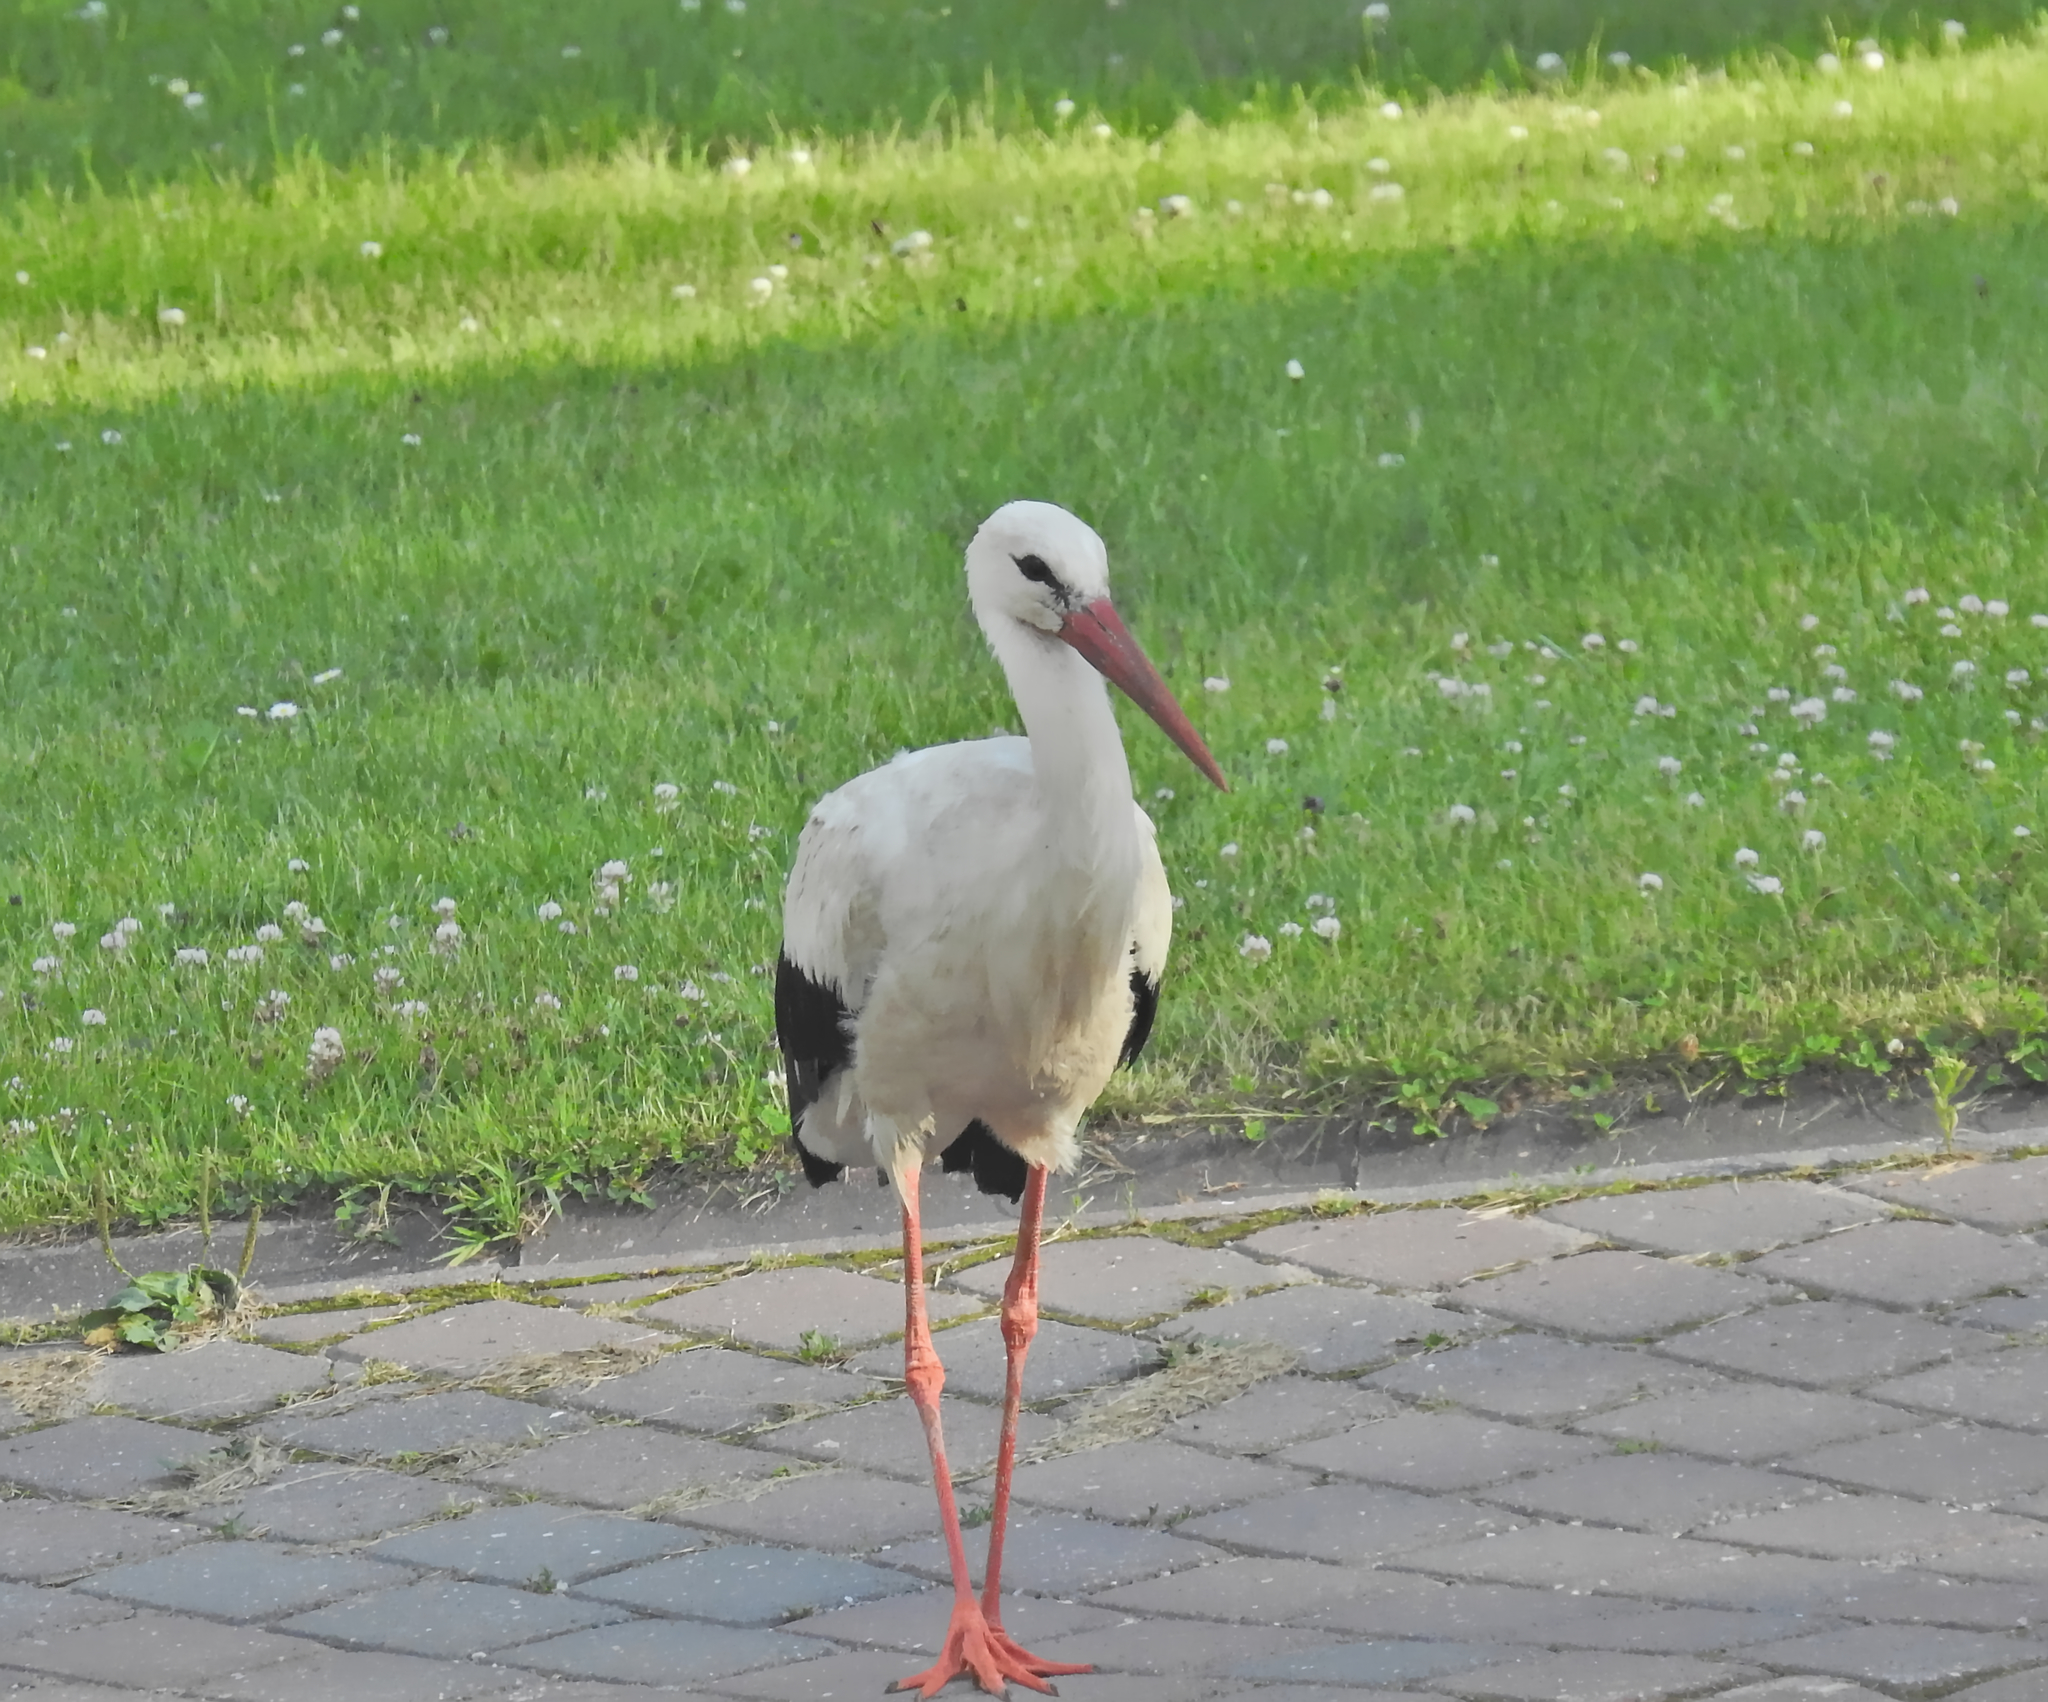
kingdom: Animalia
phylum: Chordata
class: Aves
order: Ciconiiformes
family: Ciconiidae
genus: Ciconia
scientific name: Ciconia ciconia
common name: White stork
